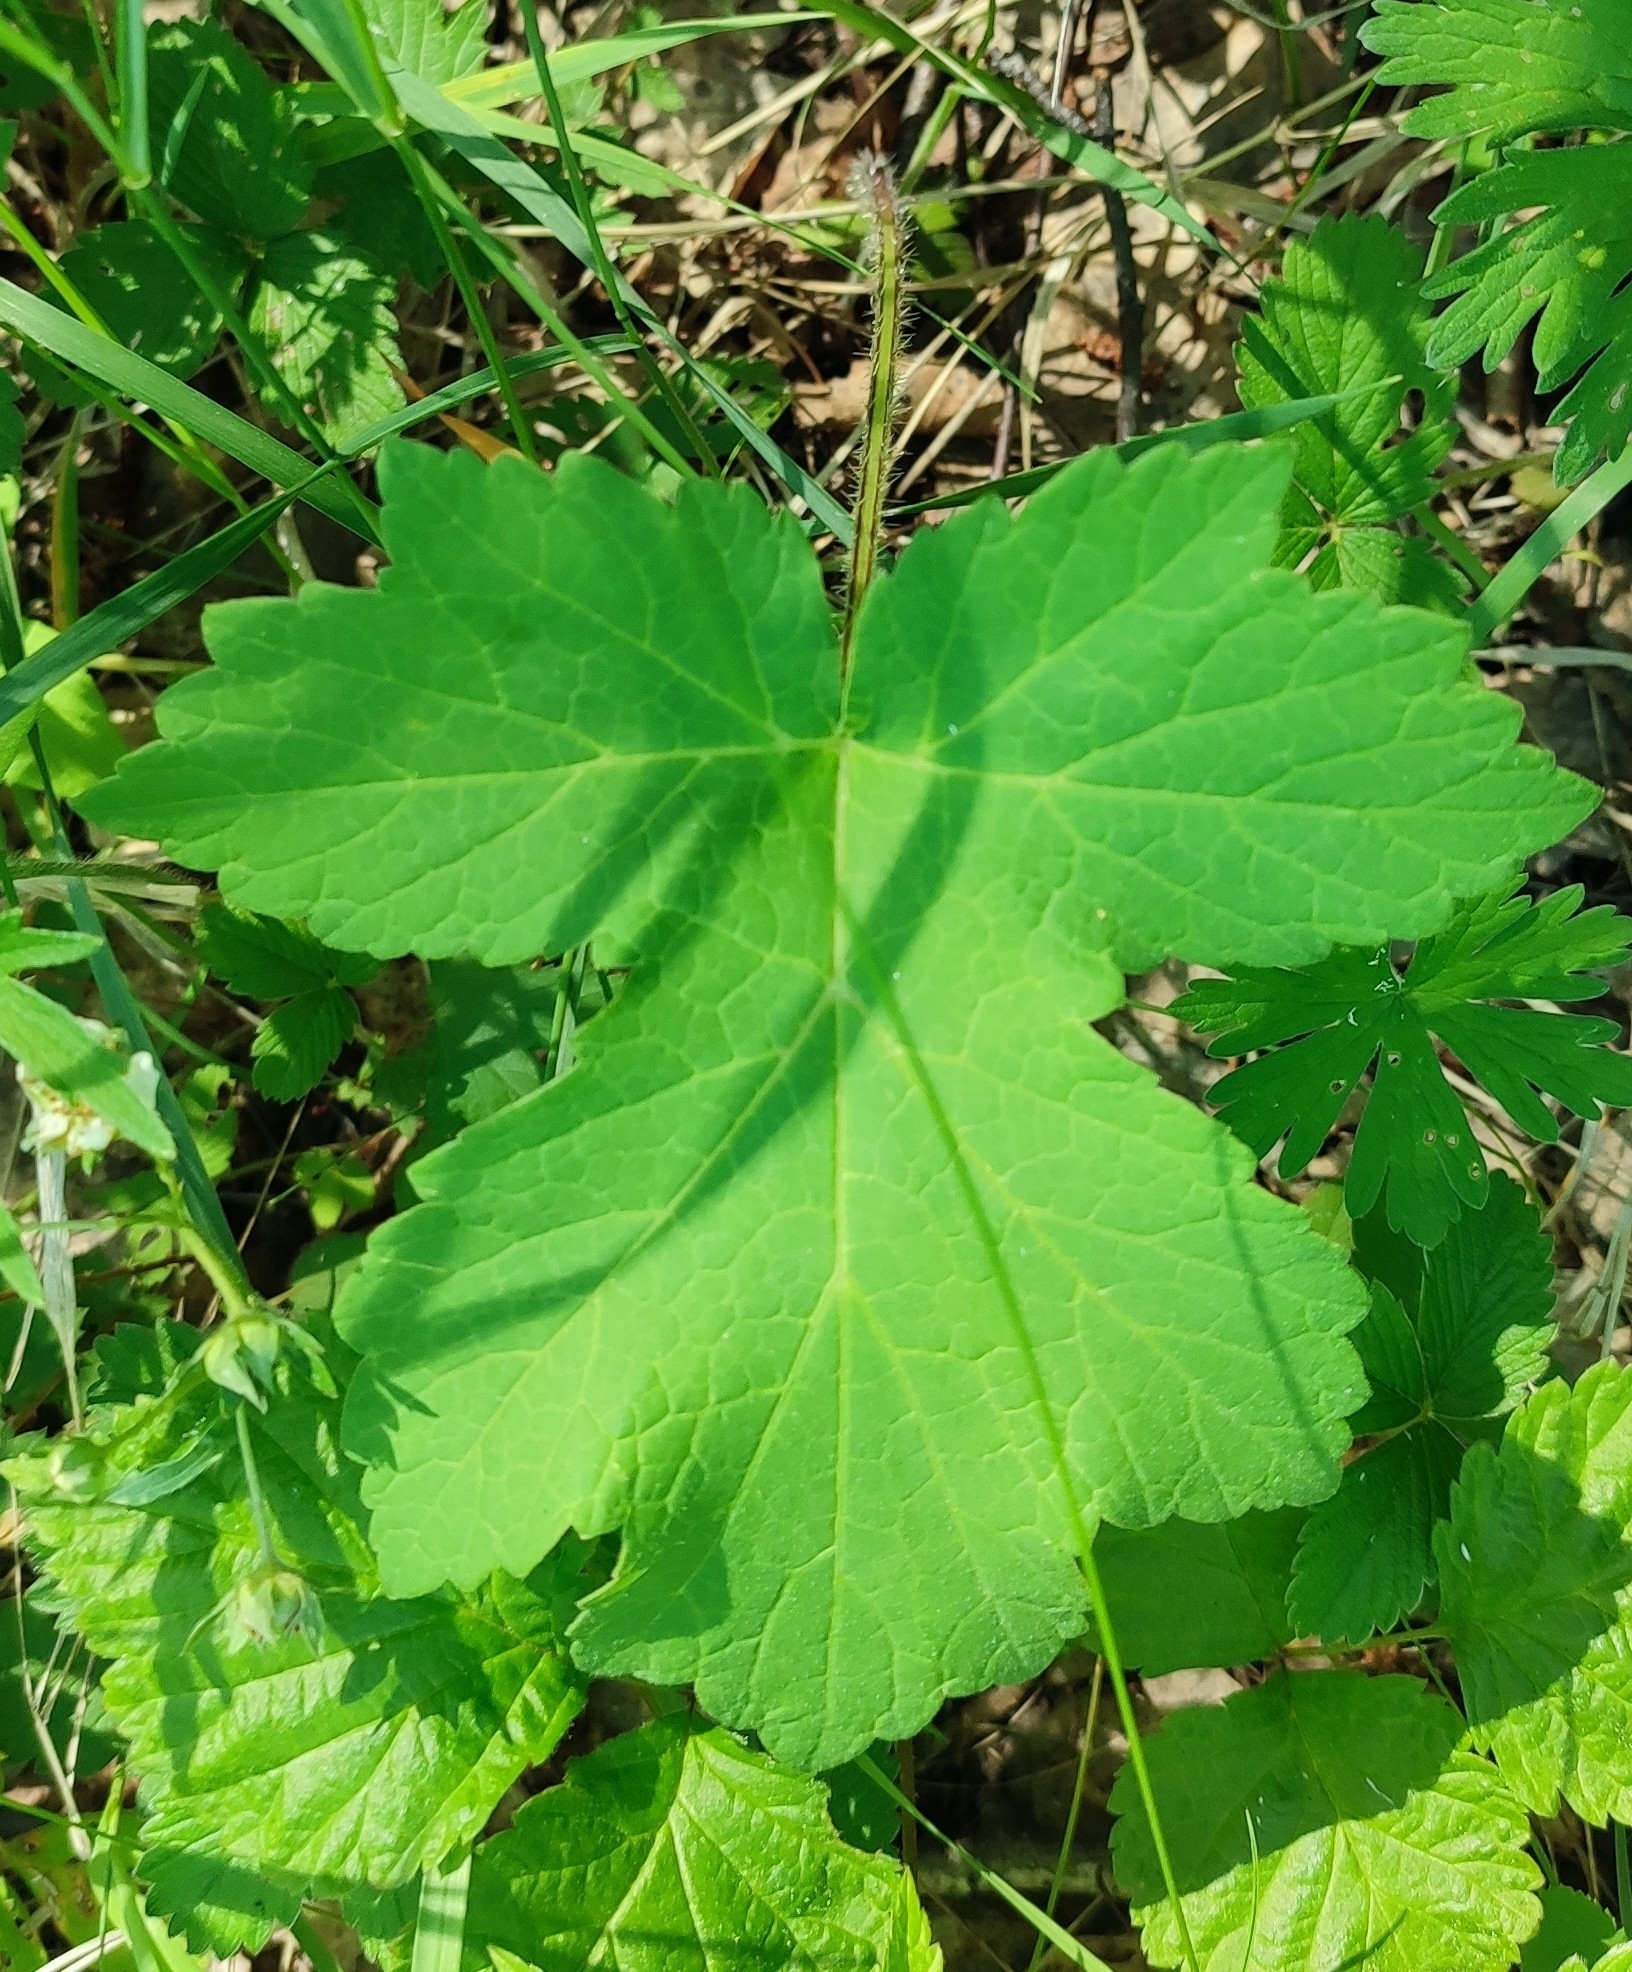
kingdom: Plantae
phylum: Tracheophyta
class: Magnoliopsida
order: Apiales
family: Apiaceae
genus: Heracleum
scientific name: Heracleum sphondylium
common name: Hogweed
